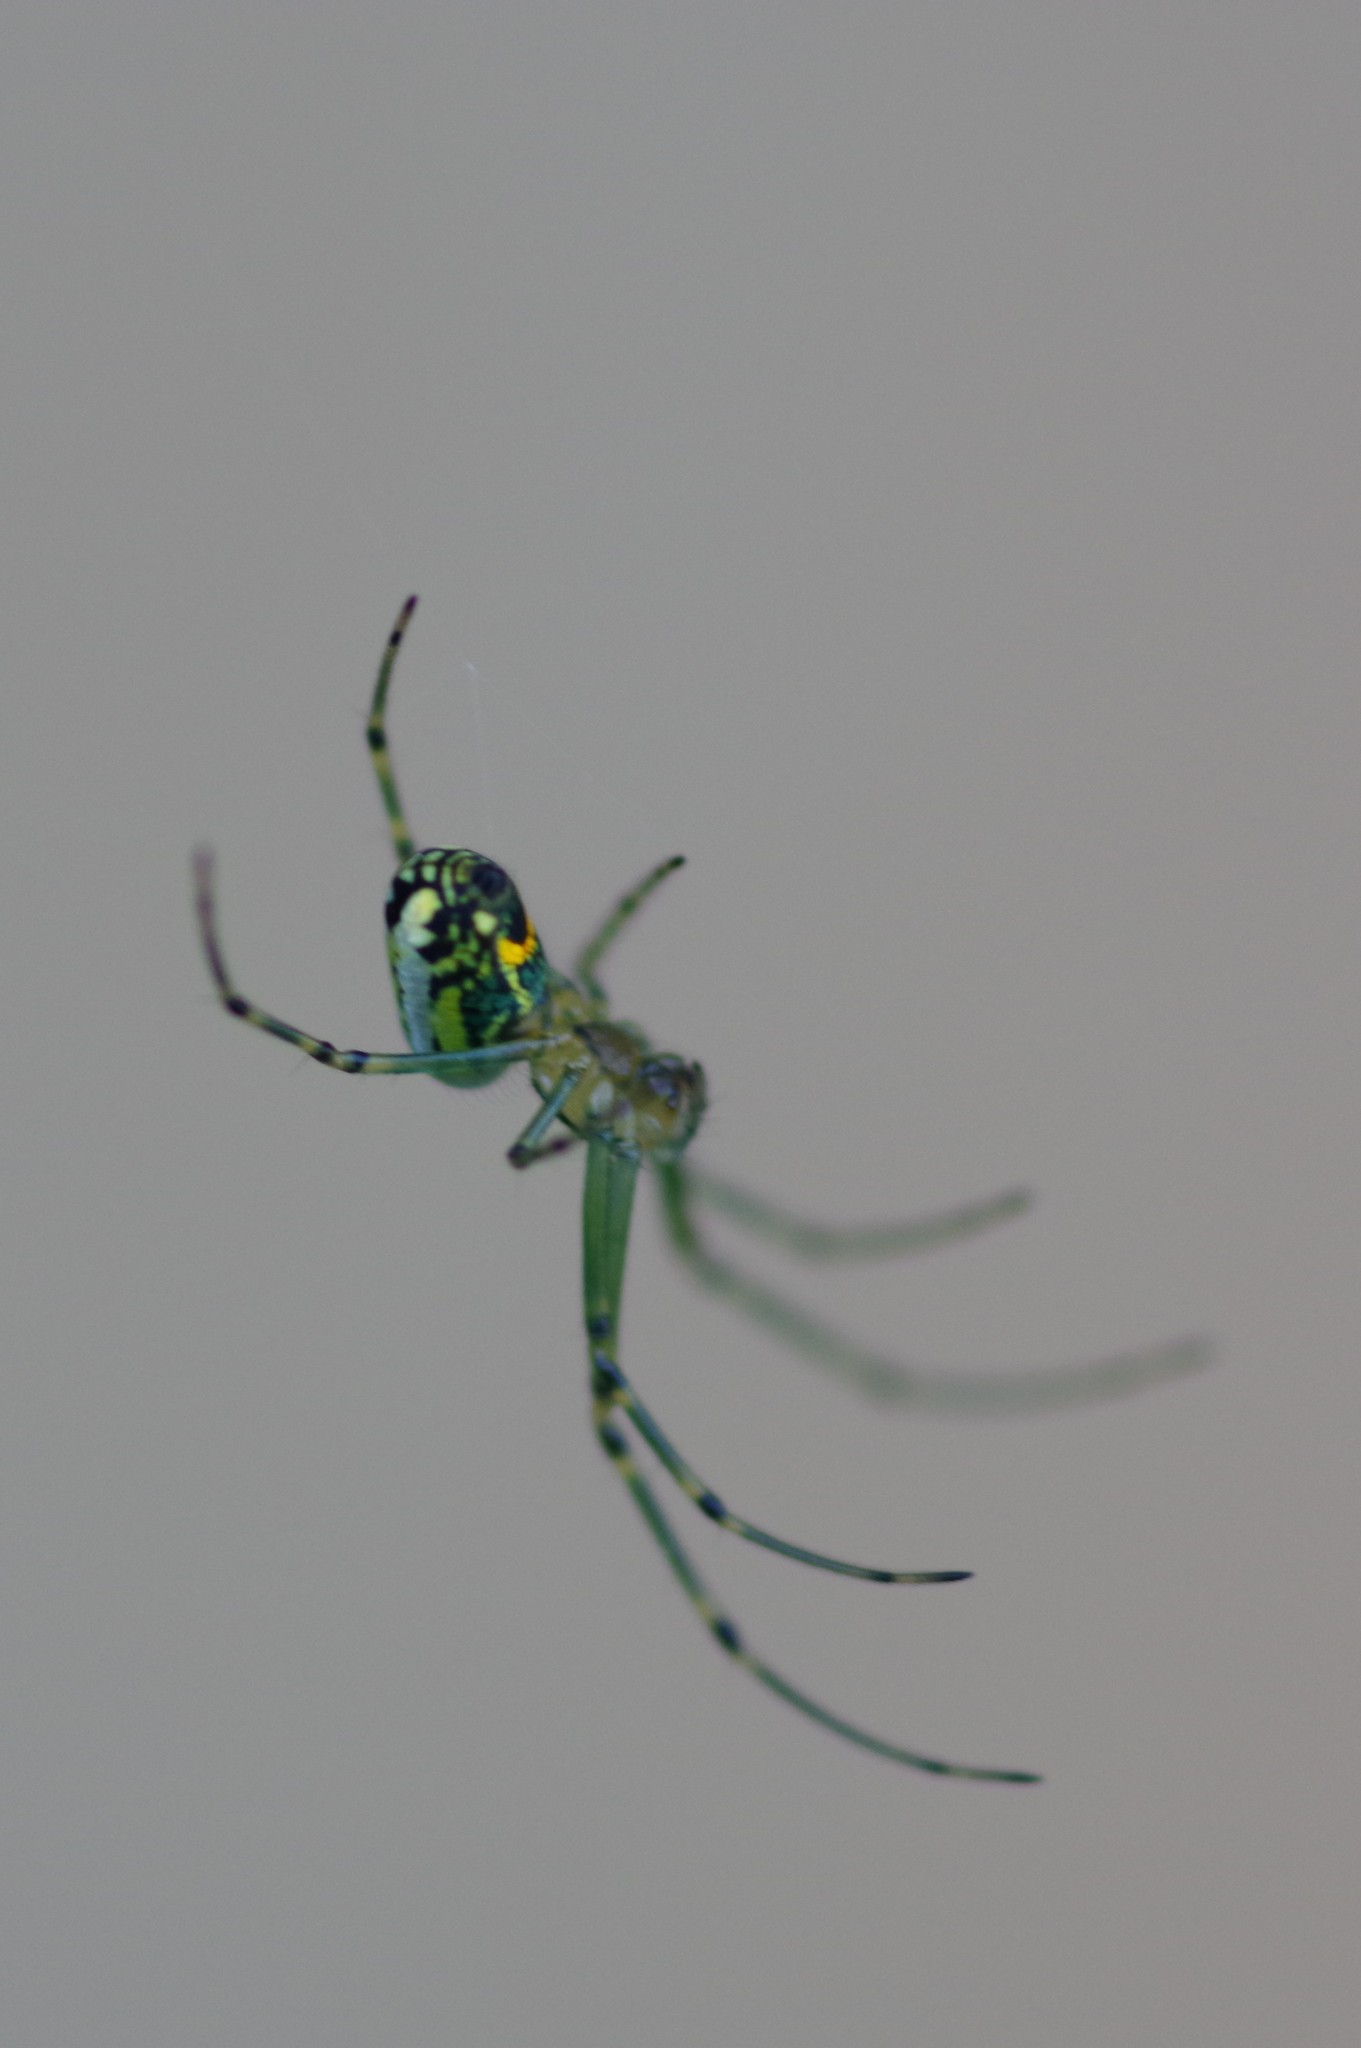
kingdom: Animalia
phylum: Arthropoda
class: Arachnida
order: Araneae
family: Tetragnathidae
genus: Leucauge
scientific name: Leucauge venusta
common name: Longjawed orb weavers
